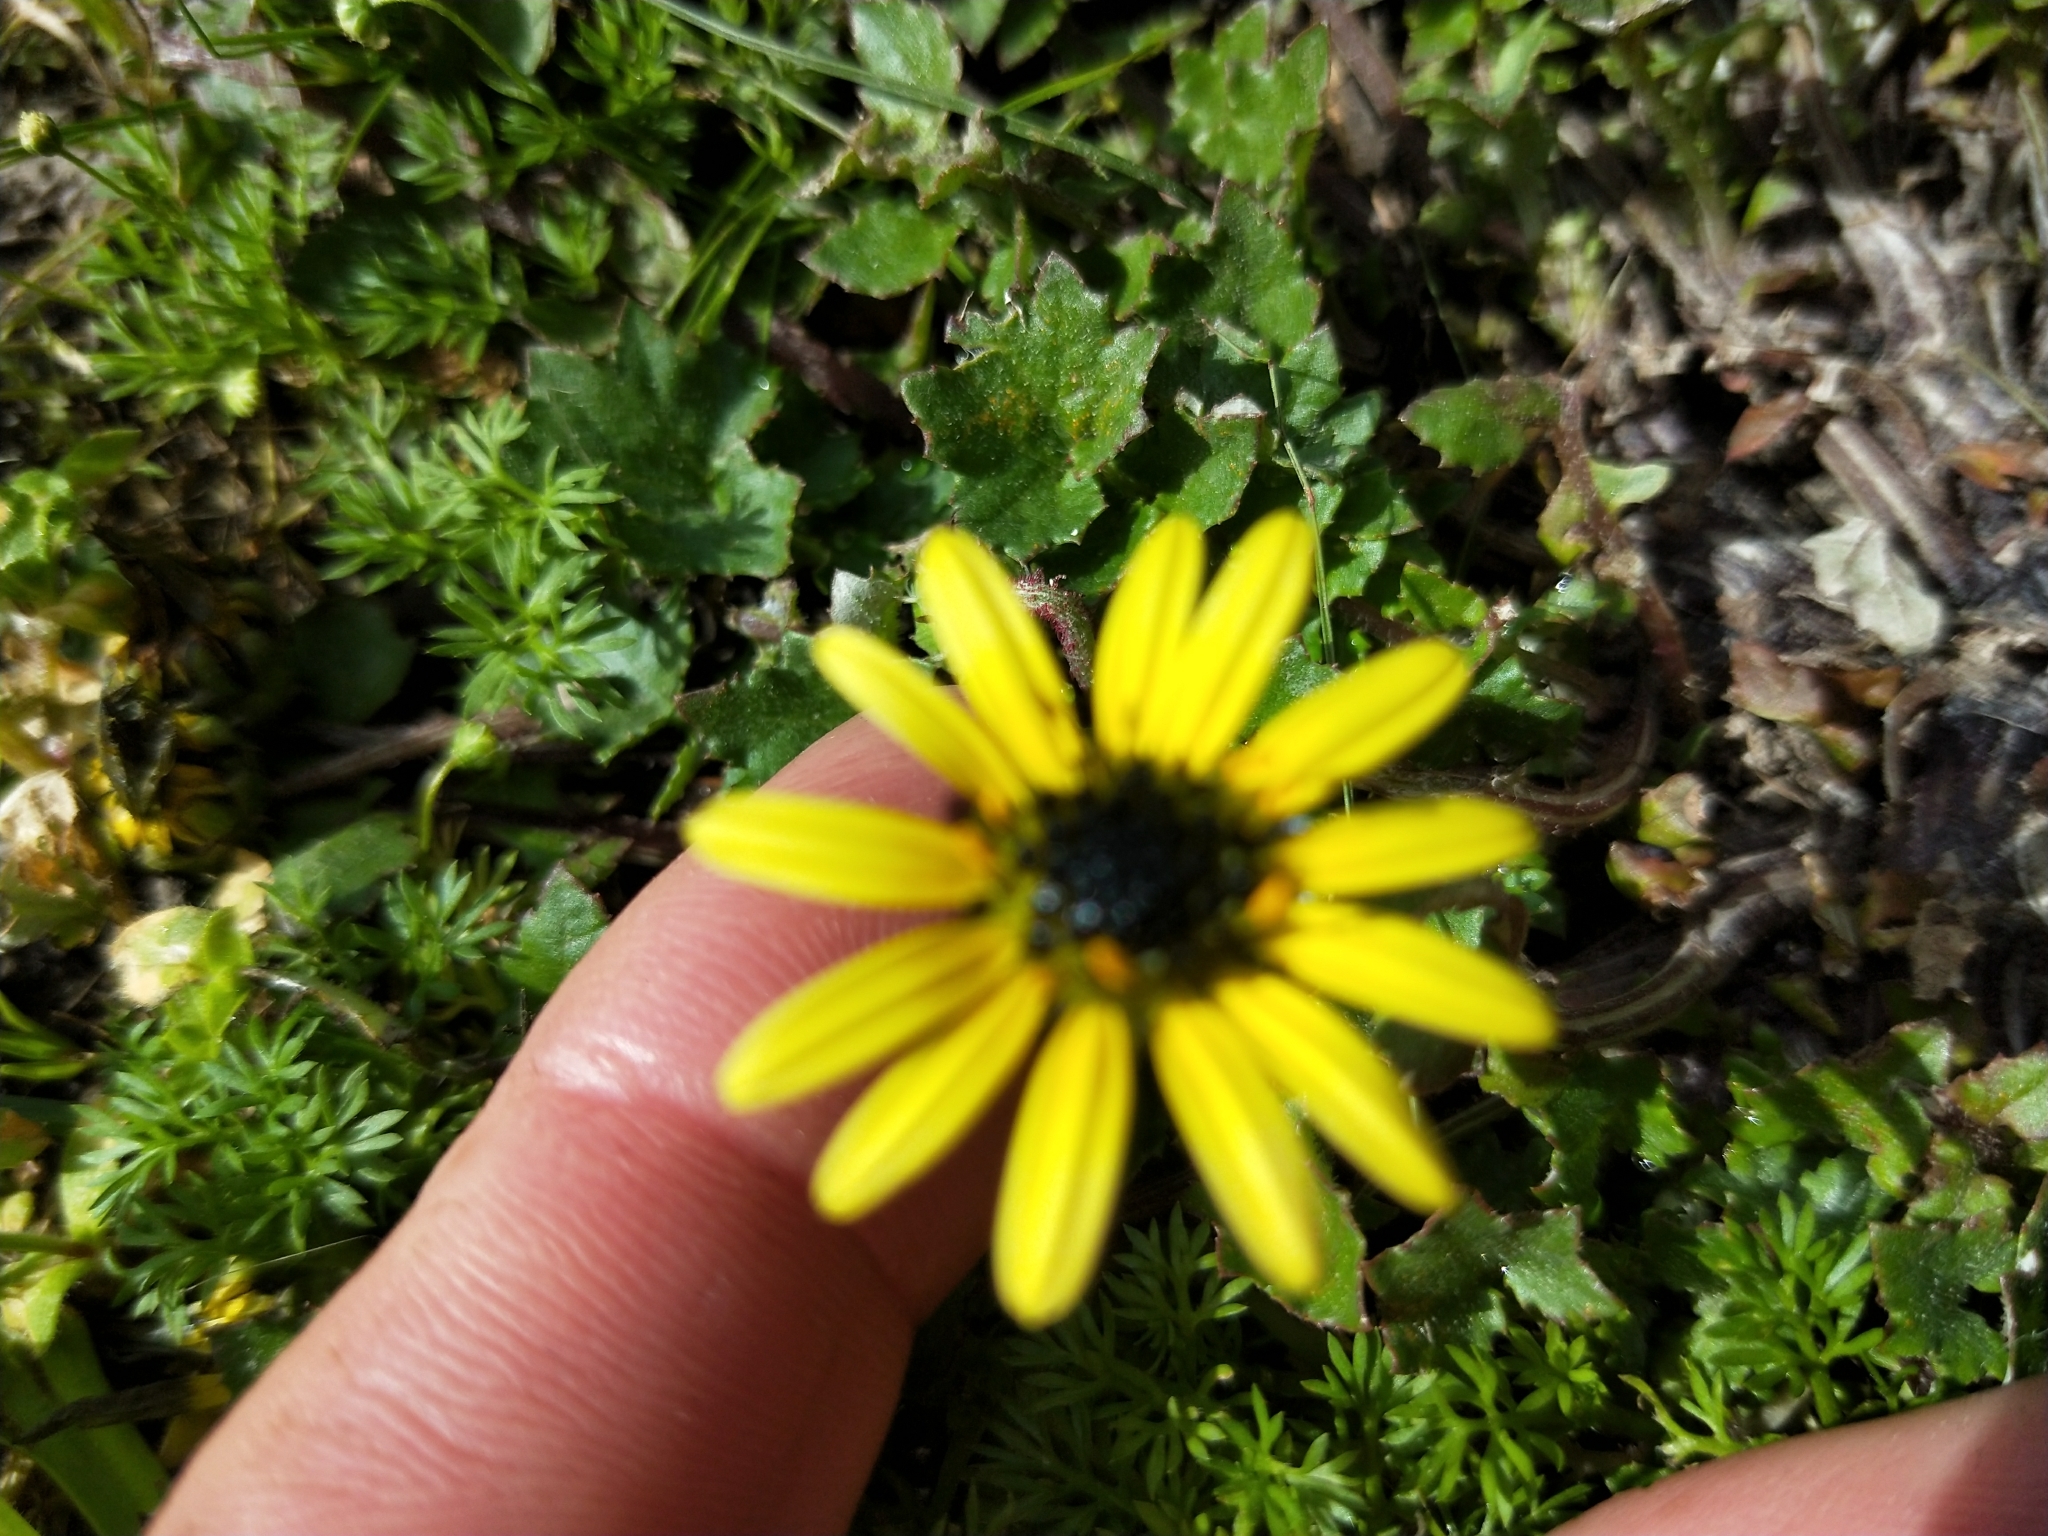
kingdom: Plantae
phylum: Tracheophyta
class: Magnoliopsida
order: Asterales
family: Asteraceae
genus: Arctotheca
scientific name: Arctotheca calendula
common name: Capeweed
